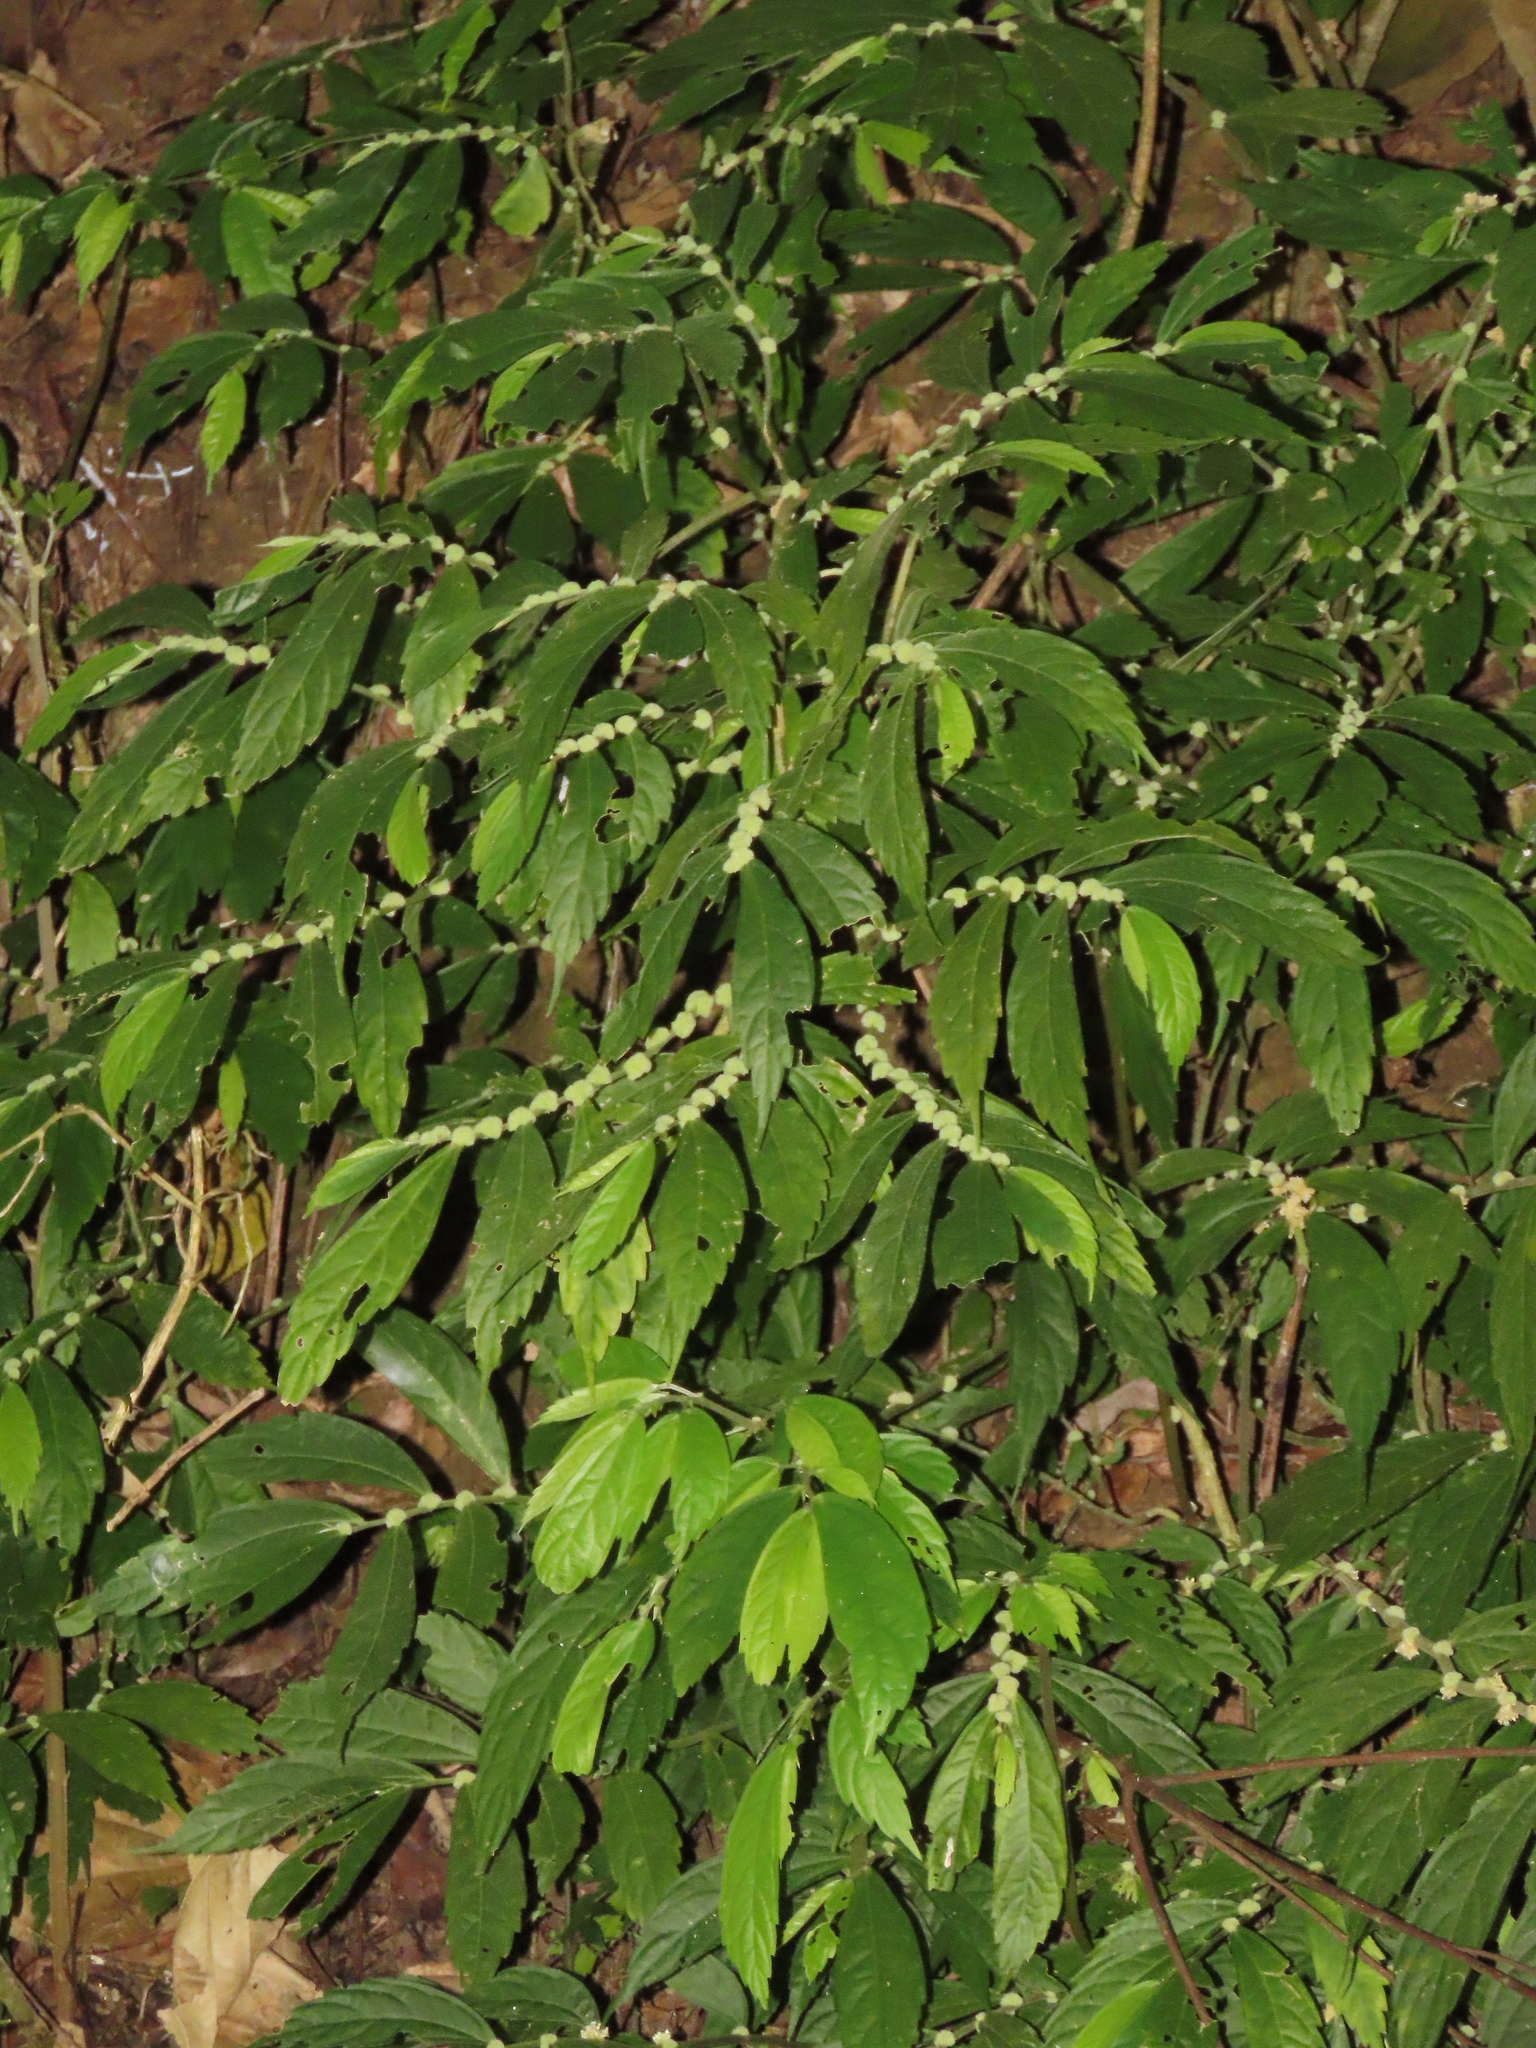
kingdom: Plantae
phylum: Tracheophyta
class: Magnoliopsida
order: Rosales
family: Urticaceae
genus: Elatostema
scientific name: Elatostema lineolatum
